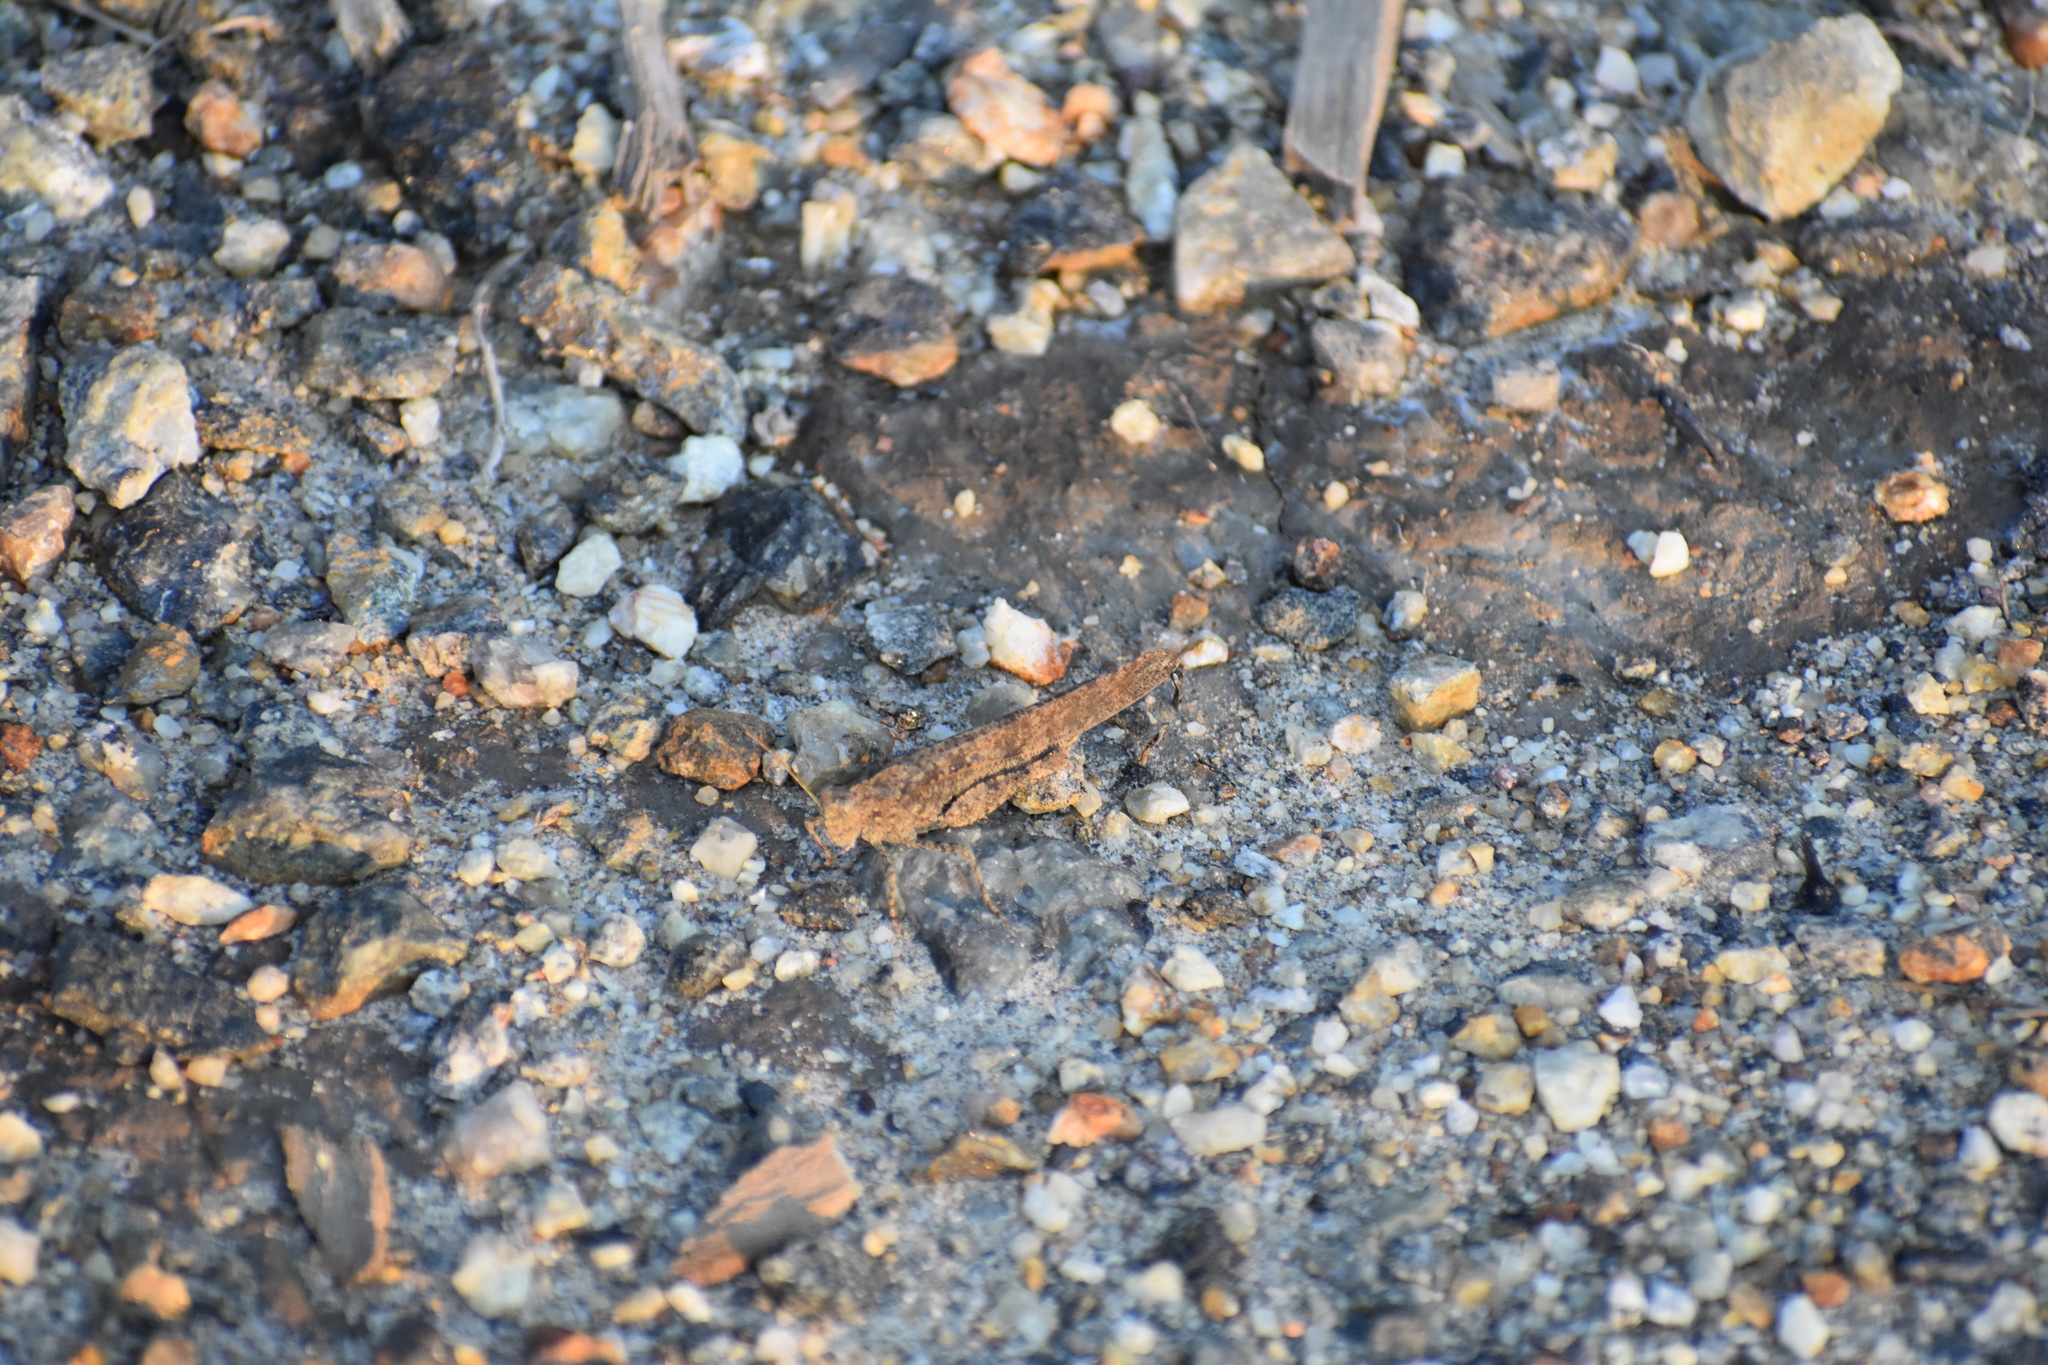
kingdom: Animalia
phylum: Arthropoda
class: Insecta
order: Orthoptera
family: Acrididae
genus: Dissosteira
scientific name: Dissosteira carolina
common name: Carolina grasshopper
